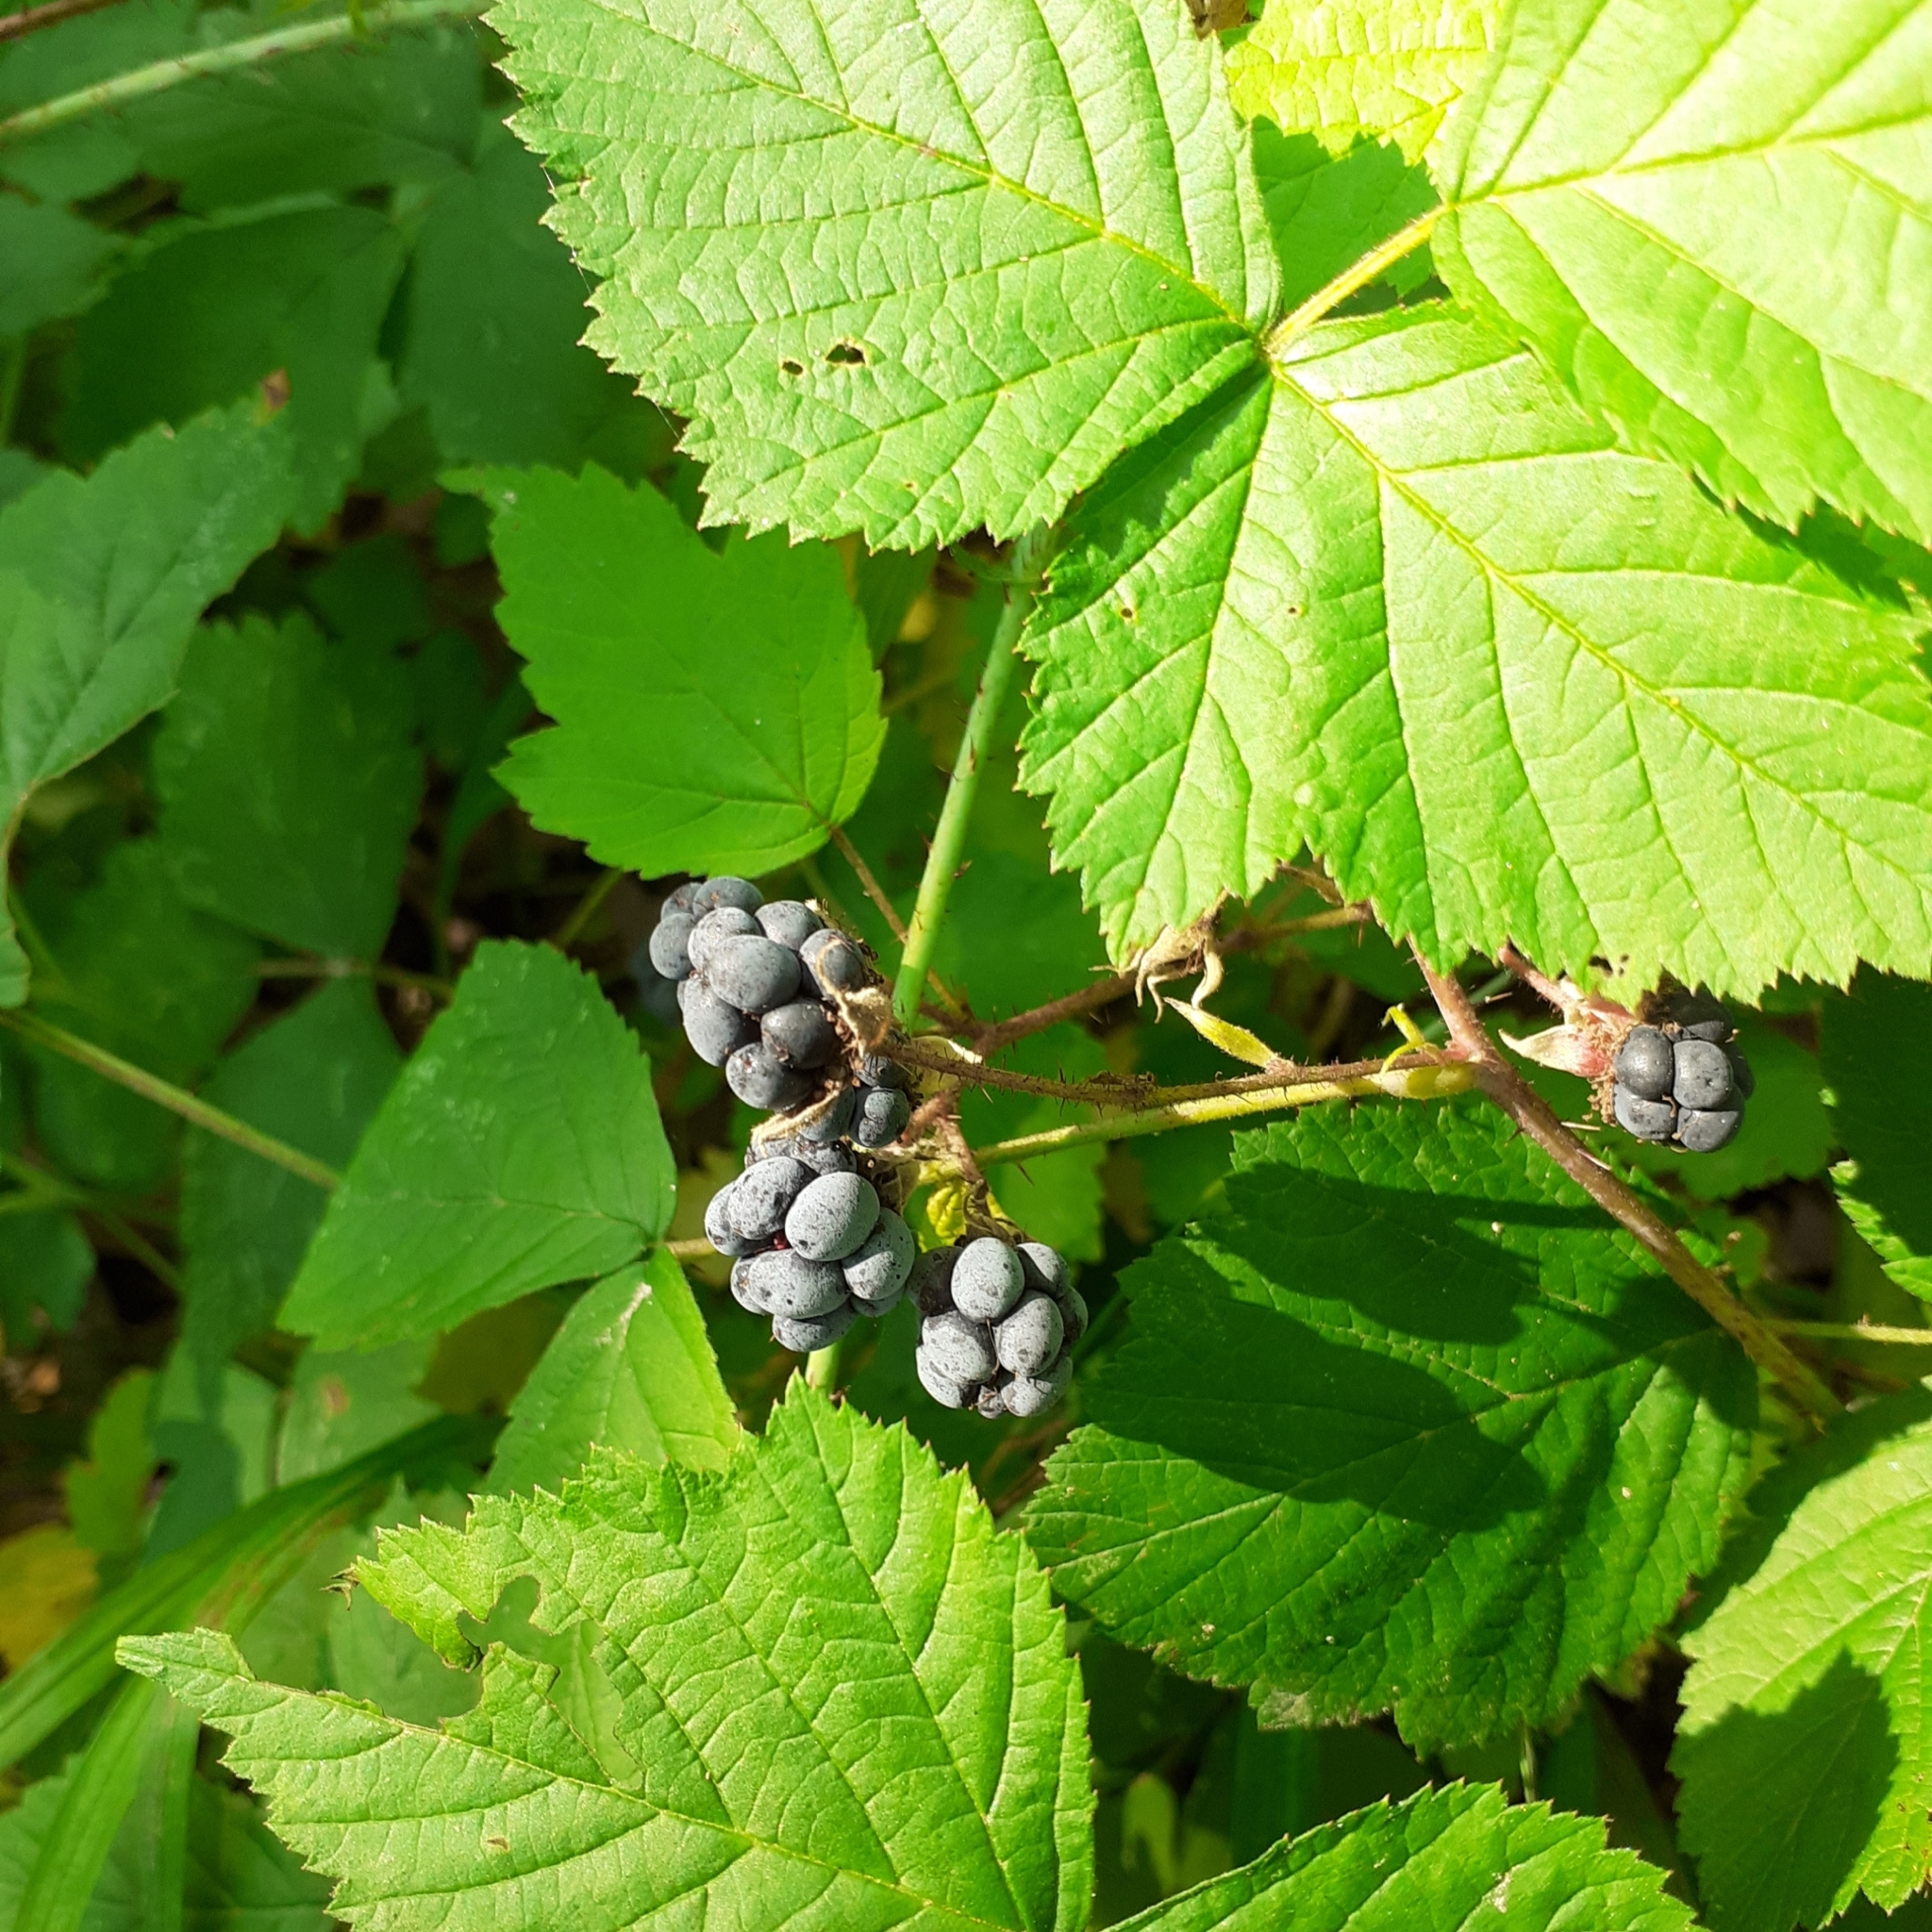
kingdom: Plantae
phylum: Tracheophyta
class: Magnoliopsida
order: Rosales
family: Rosaceae
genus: Rubus
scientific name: Rubus caesius
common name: Dewberry
